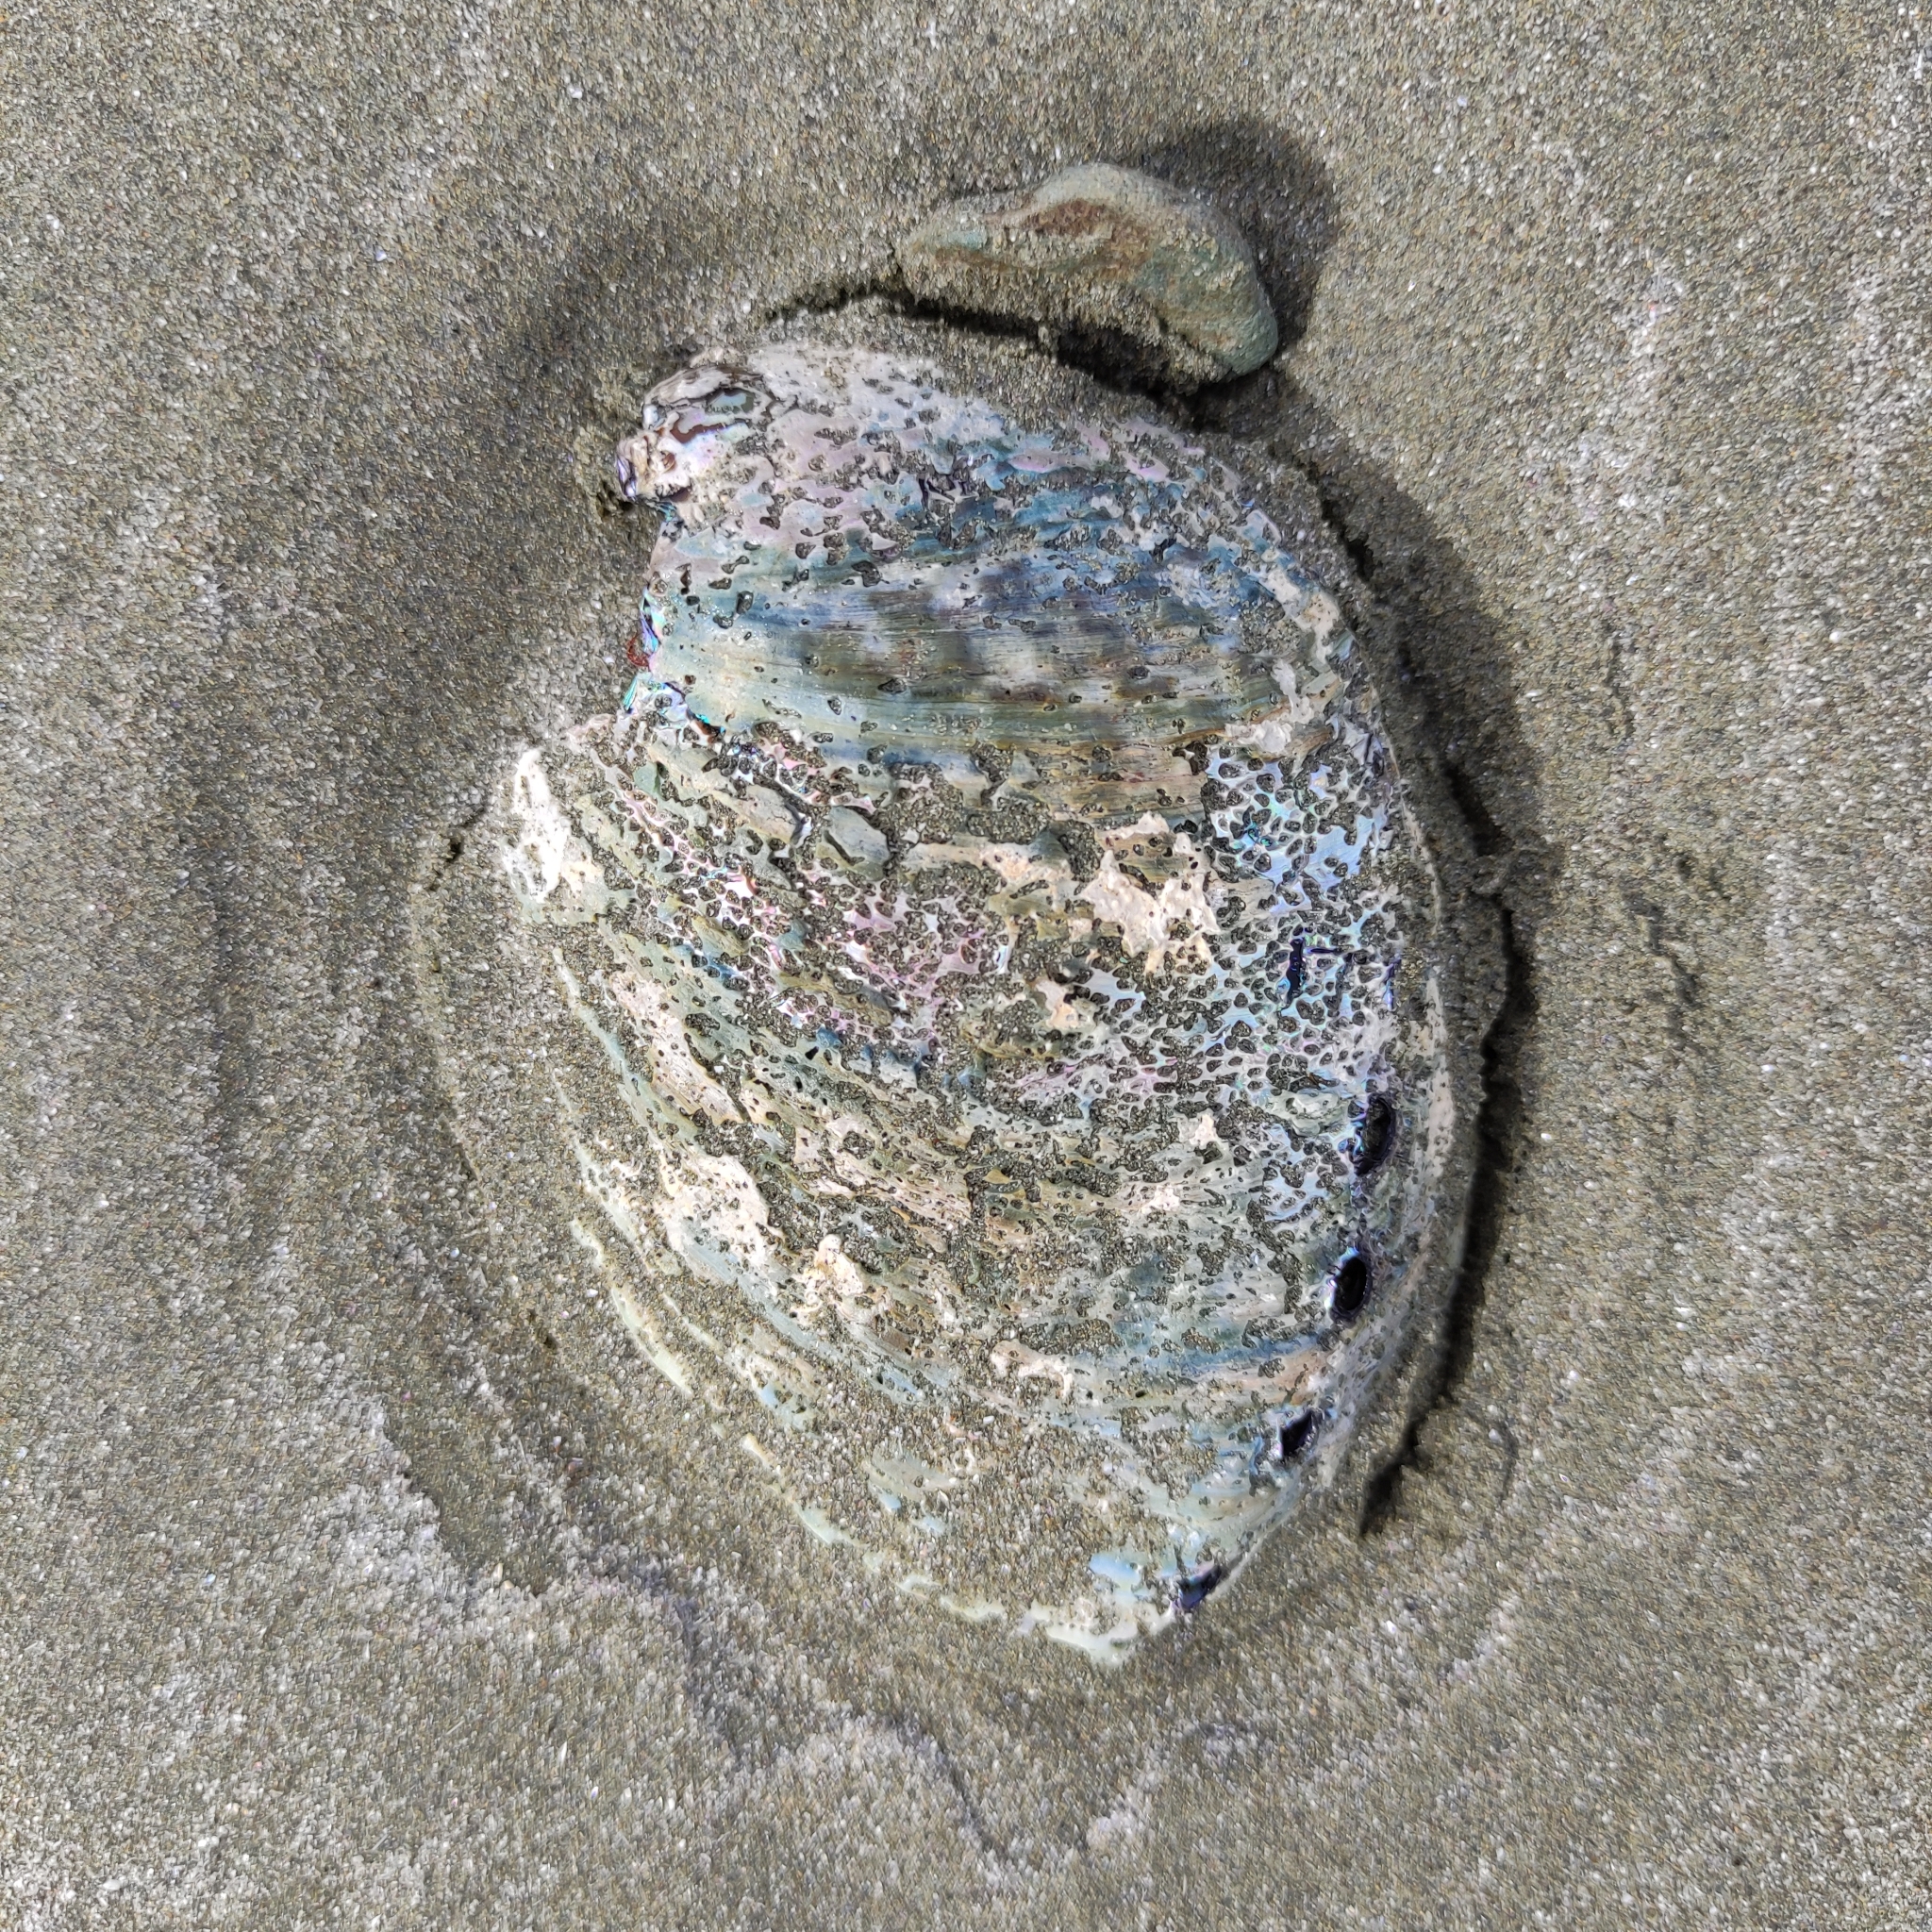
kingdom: Animalia
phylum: Mollusca
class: Gastropoda
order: Lepetellida
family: Haliotidae
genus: Haliotis
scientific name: Haliotis iris
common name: Abalone
